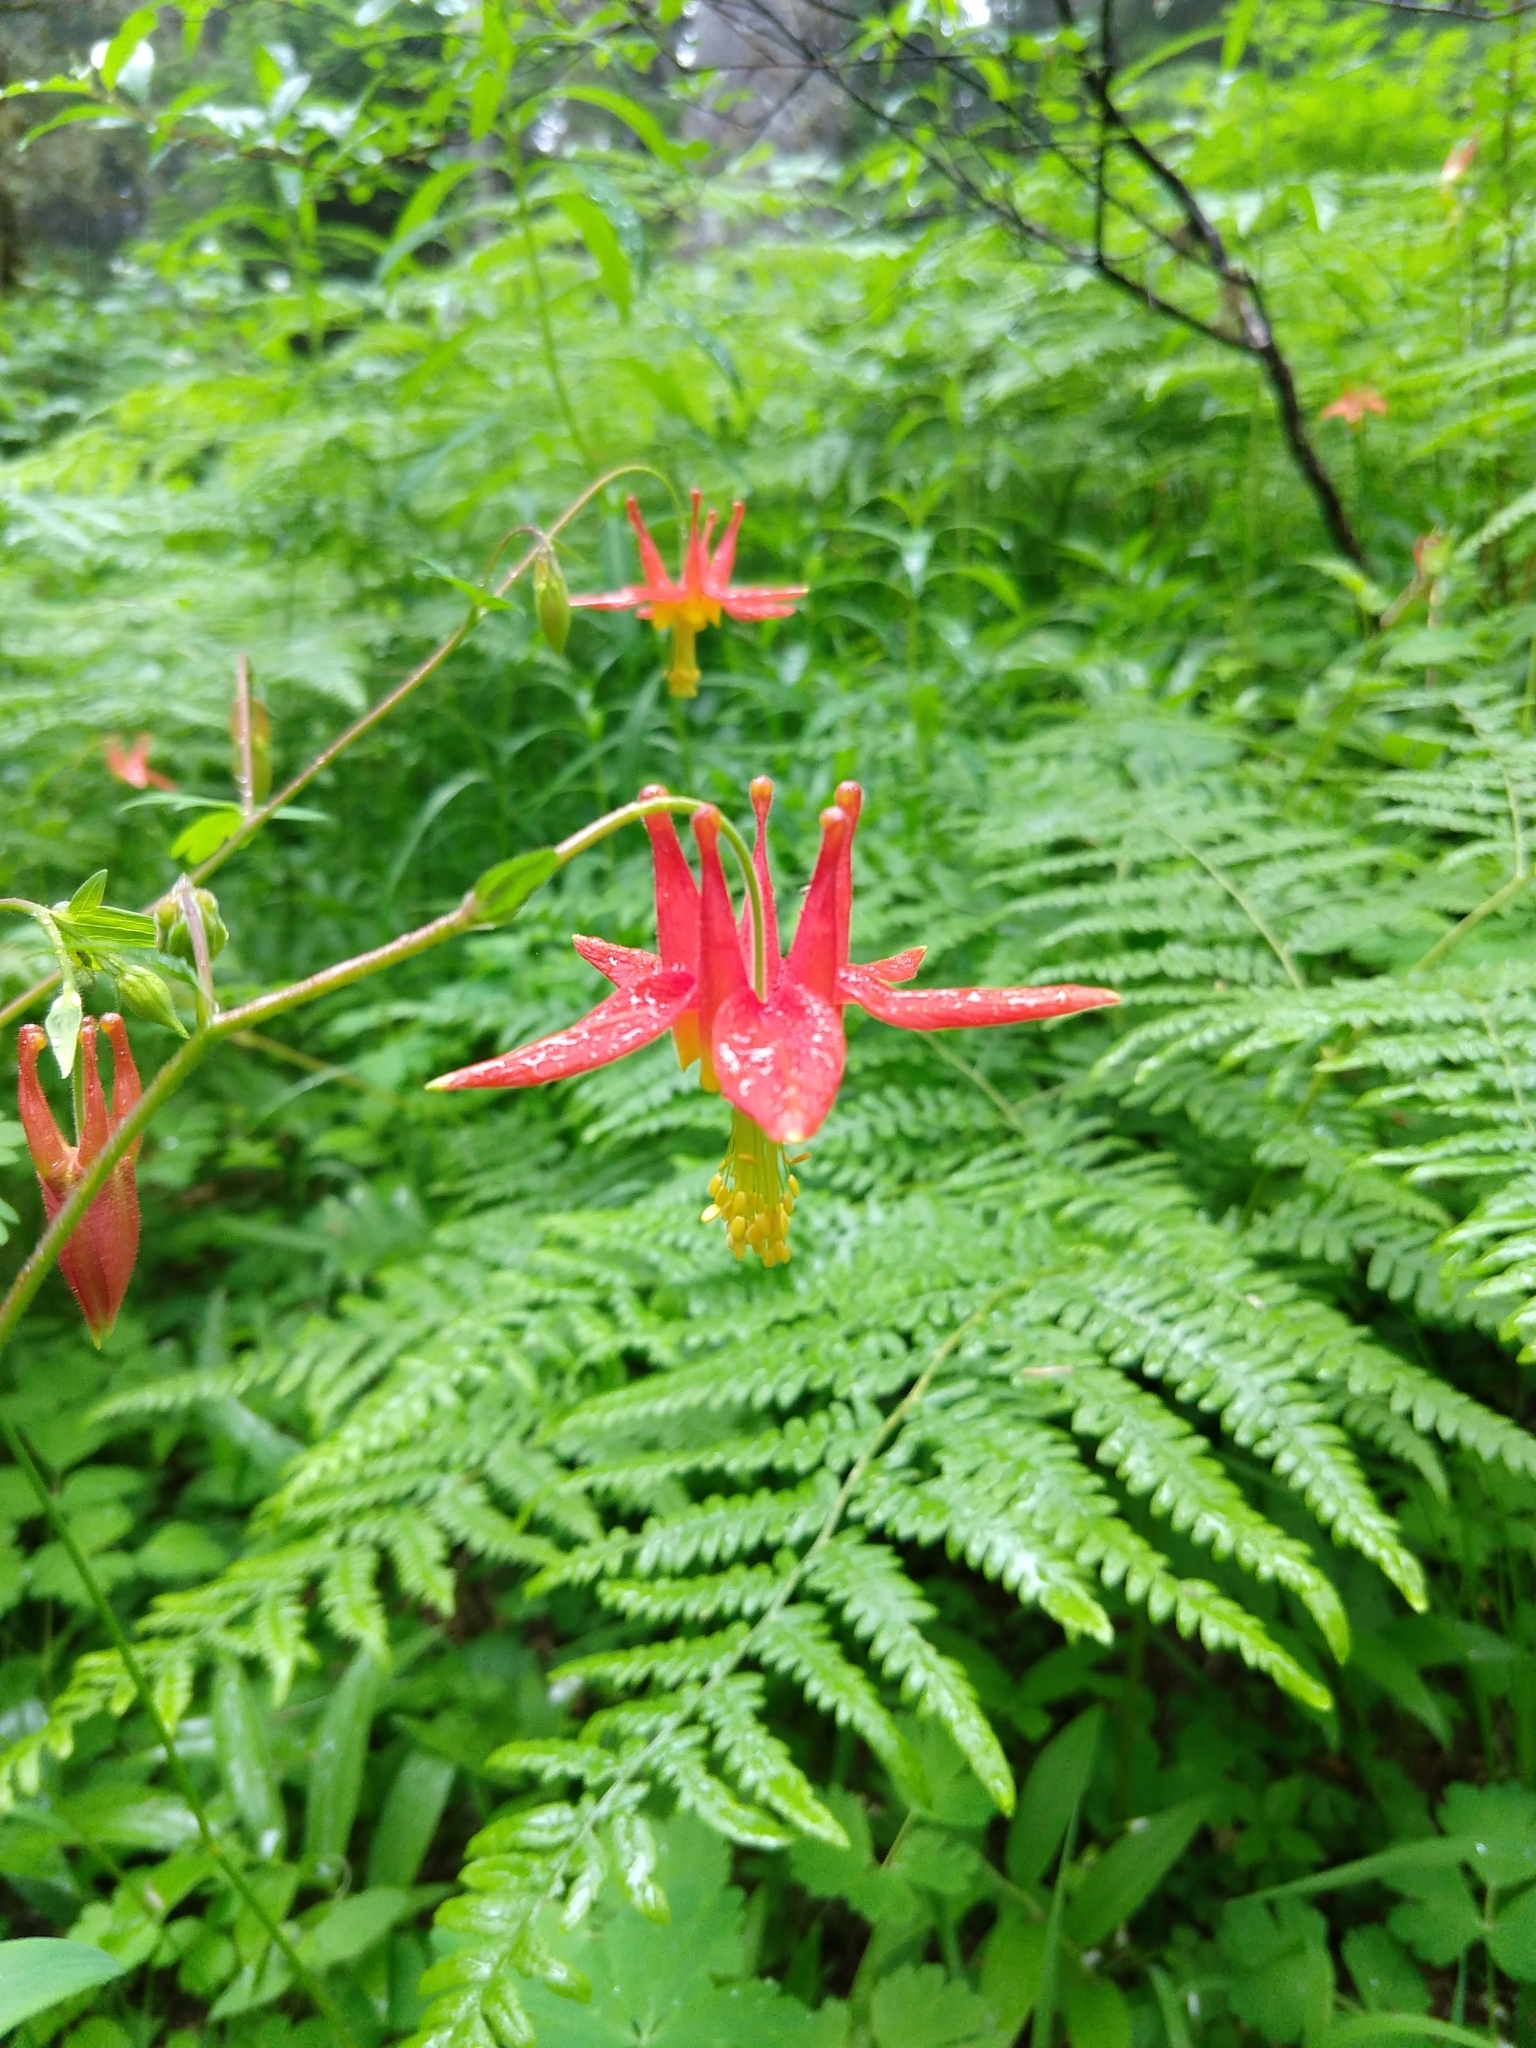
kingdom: Plantae
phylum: Tracheophyta
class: Magnoliopsida
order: Ranunculales
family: Ranunculaceae
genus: Aquilegia
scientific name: Aquilegia formosa
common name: Sitka columbine
